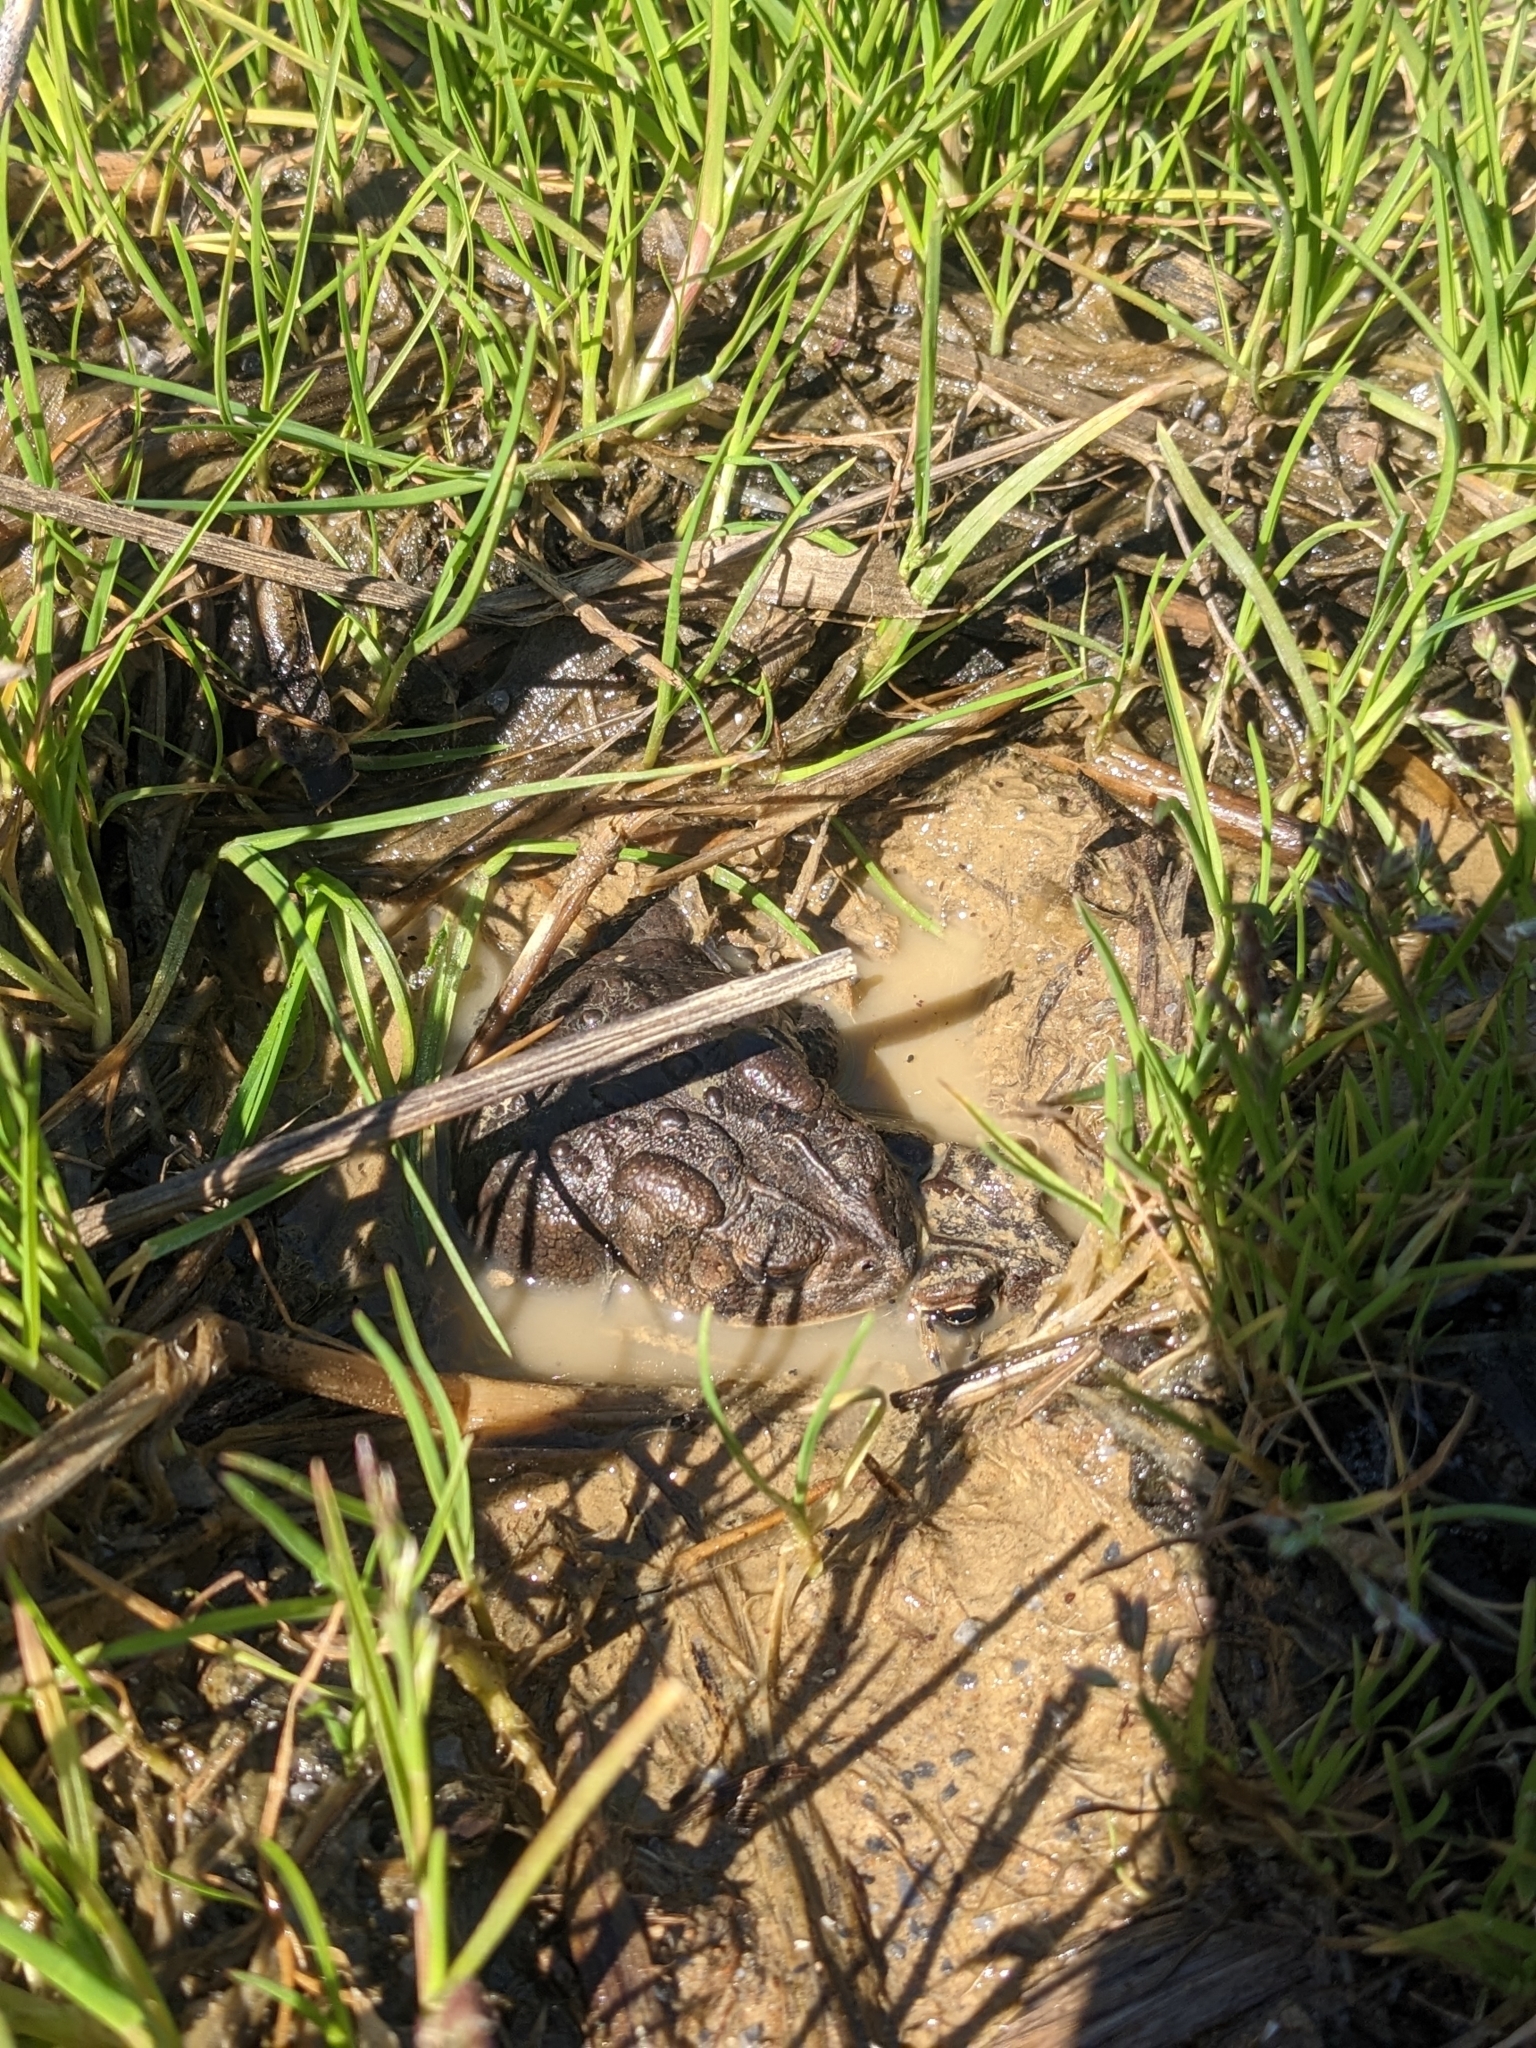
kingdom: Animalia
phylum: Chordata
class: Amphibia
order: Anura
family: Bufonidae
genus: Anaxyrus
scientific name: Anaxyrus americanus
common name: American toad
